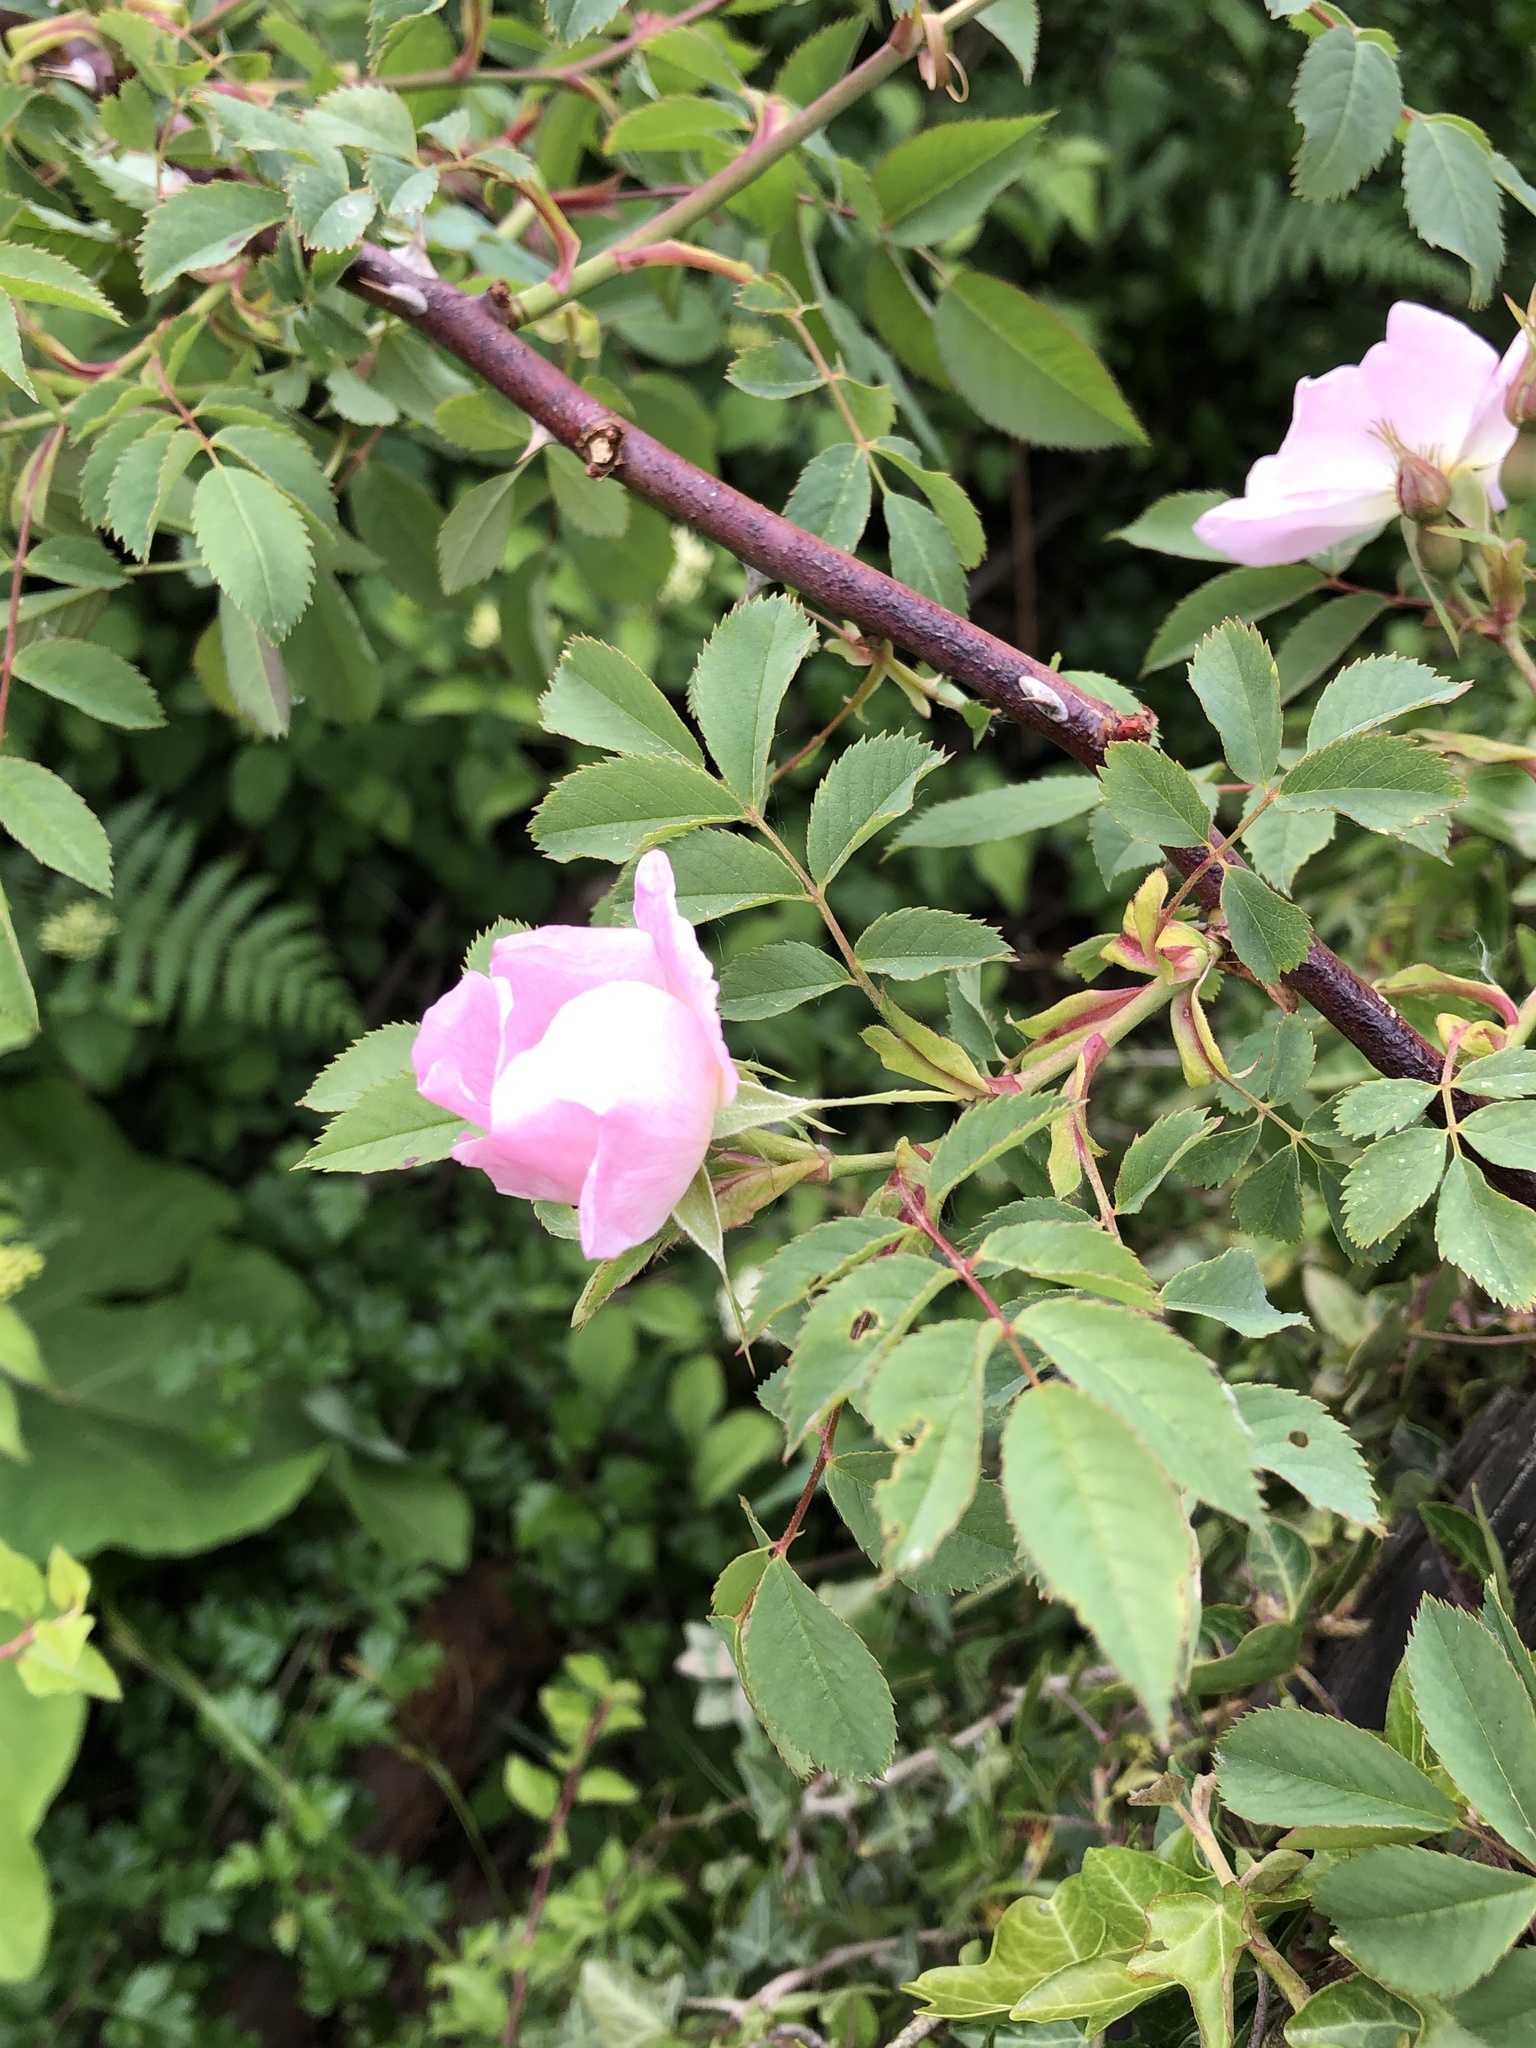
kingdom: Plantae
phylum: Tracheophyta
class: Magnoliopsida
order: Rosales
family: Rosaceae
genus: Rosa
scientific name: Rosa canina
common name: Dog rose
